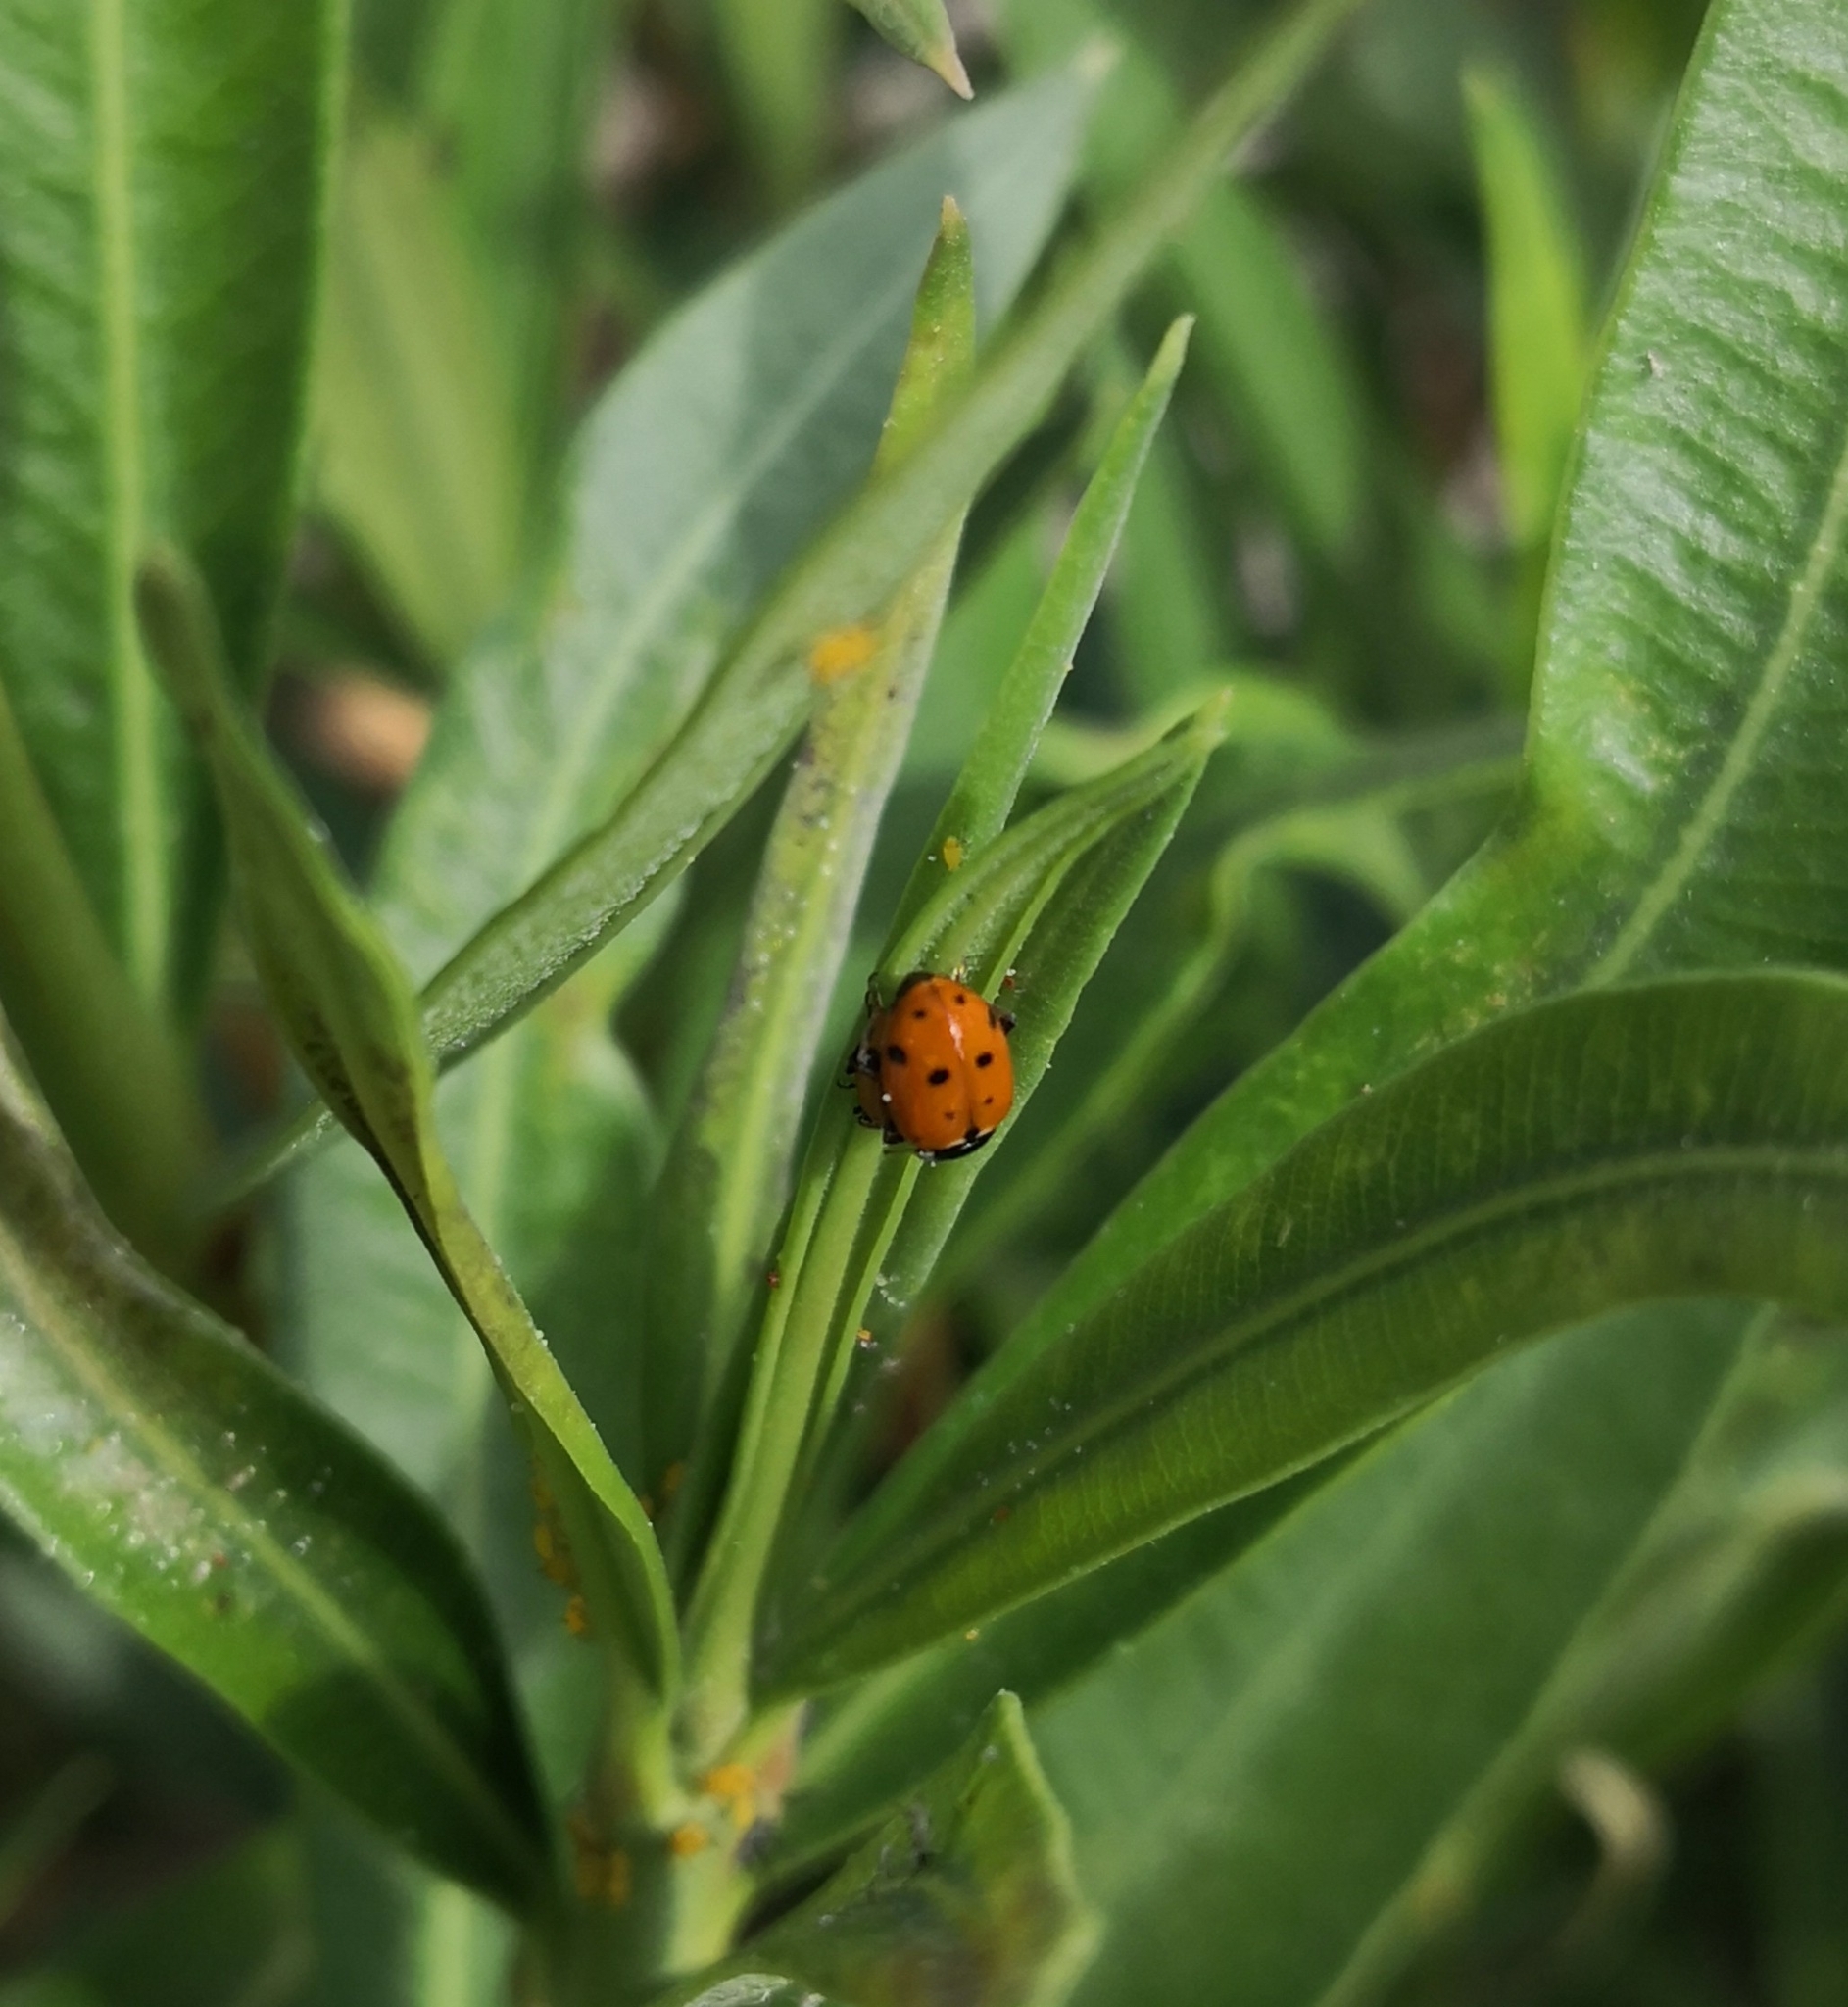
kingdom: Animalia
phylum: Arthropoda
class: Insecta
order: Coleoptera
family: Coccinellidae
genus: Hippodamia
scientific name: Hippodamia variegata
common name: Ladybird beetle
